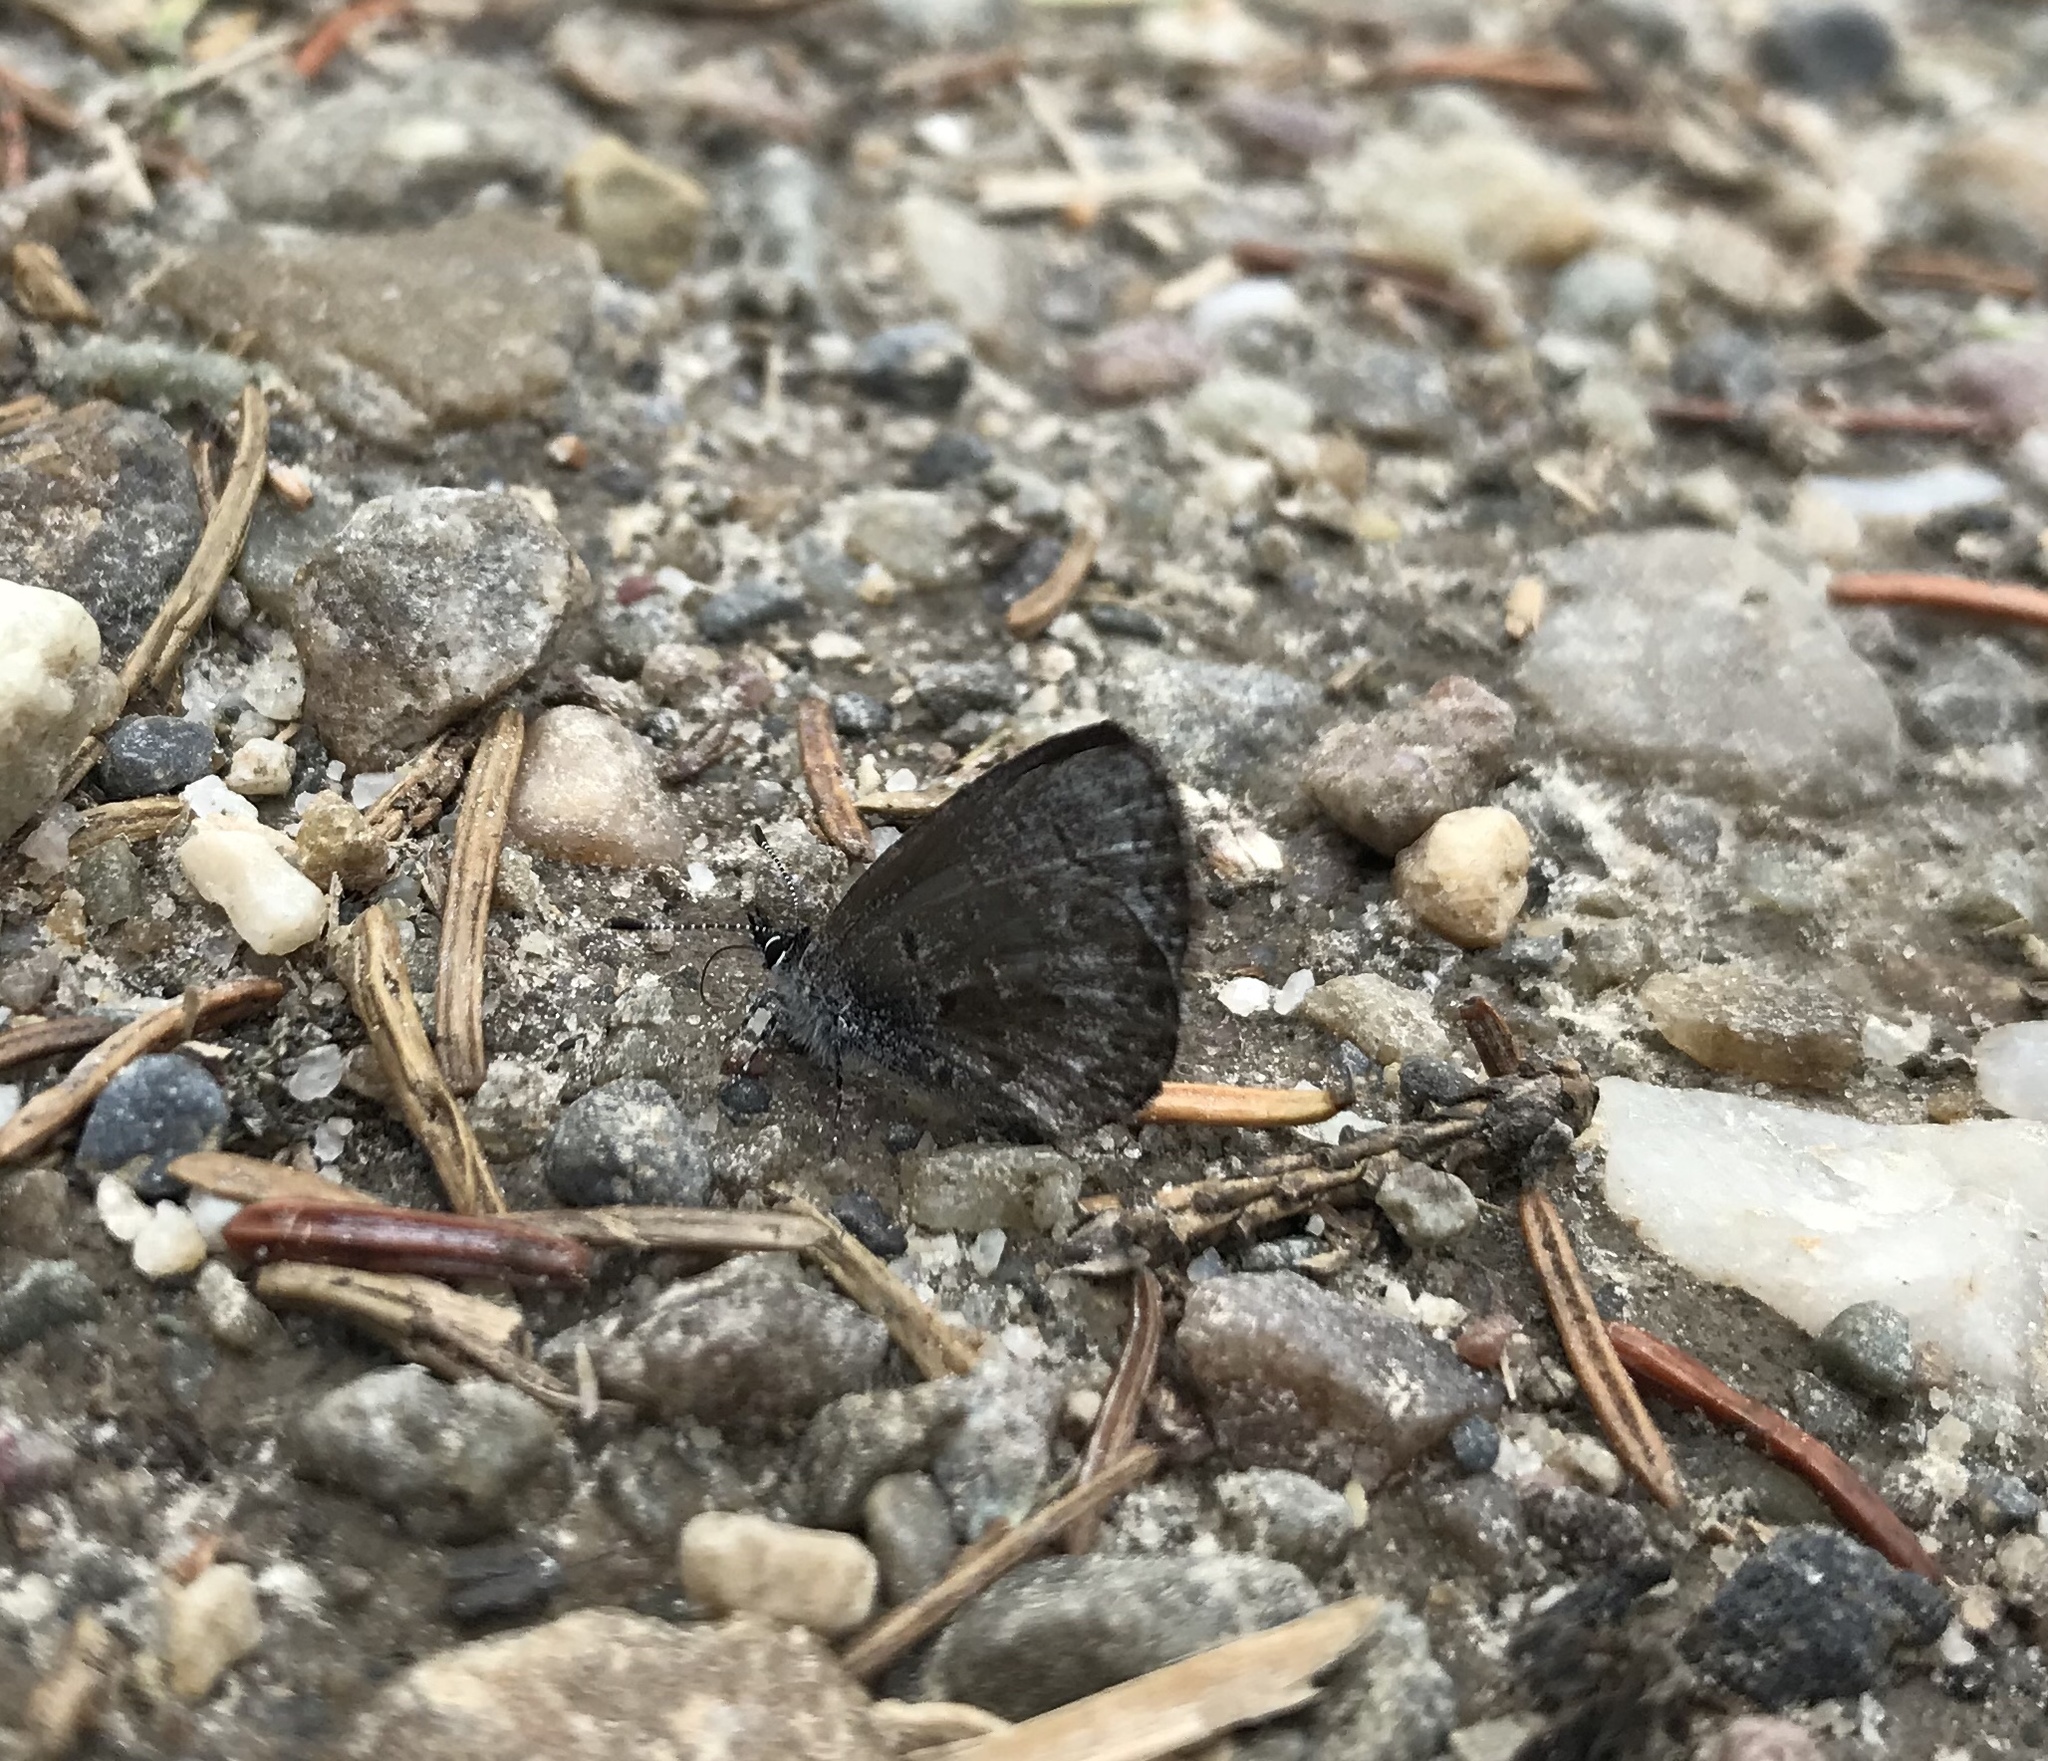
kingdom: Animalia
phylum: Arthropoda
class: Insecta
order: Lepidoptera
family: Lycaenidae
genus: Celastrina
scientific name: Celastrina lucia
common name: Lucia azure
